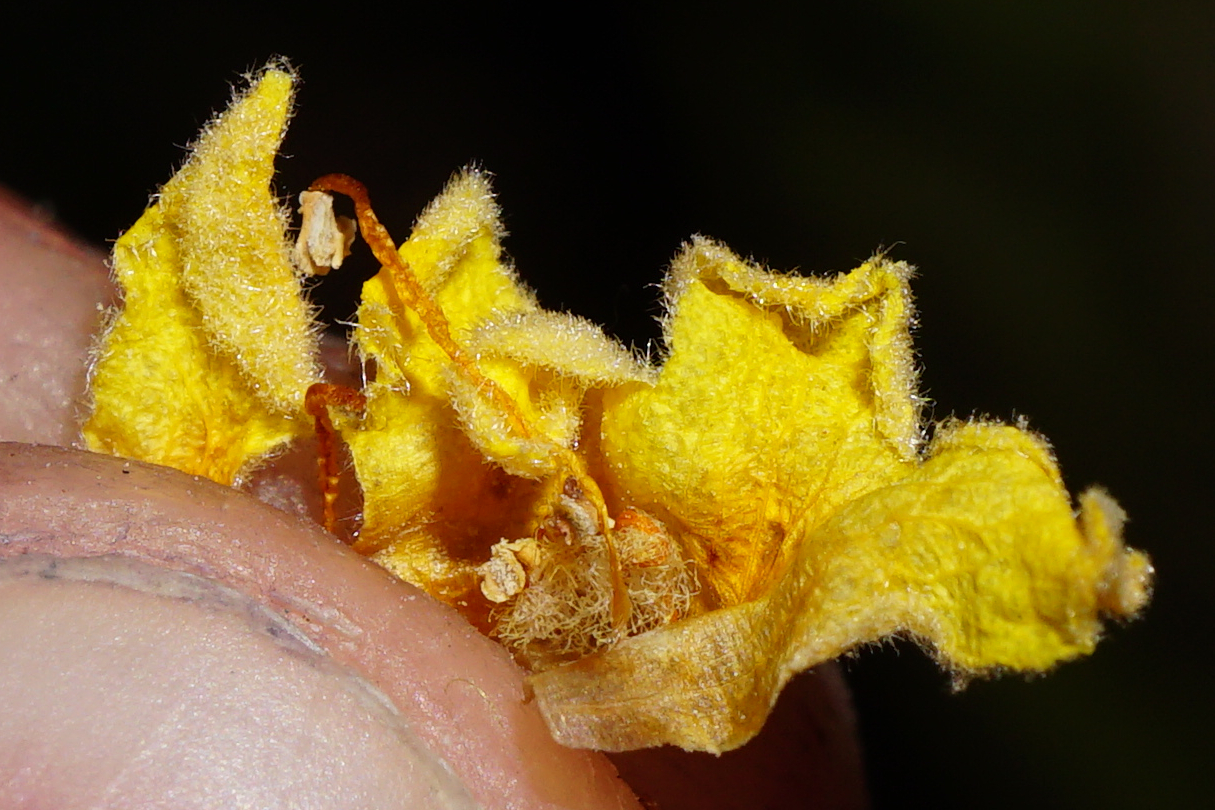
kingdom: Plantae
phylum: Tracheophyta
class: Magnoliopsida
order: Lamiales
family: Scrophulariaceae
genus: Verbascum
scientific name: Verbascum thapsus
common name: Common mullein
